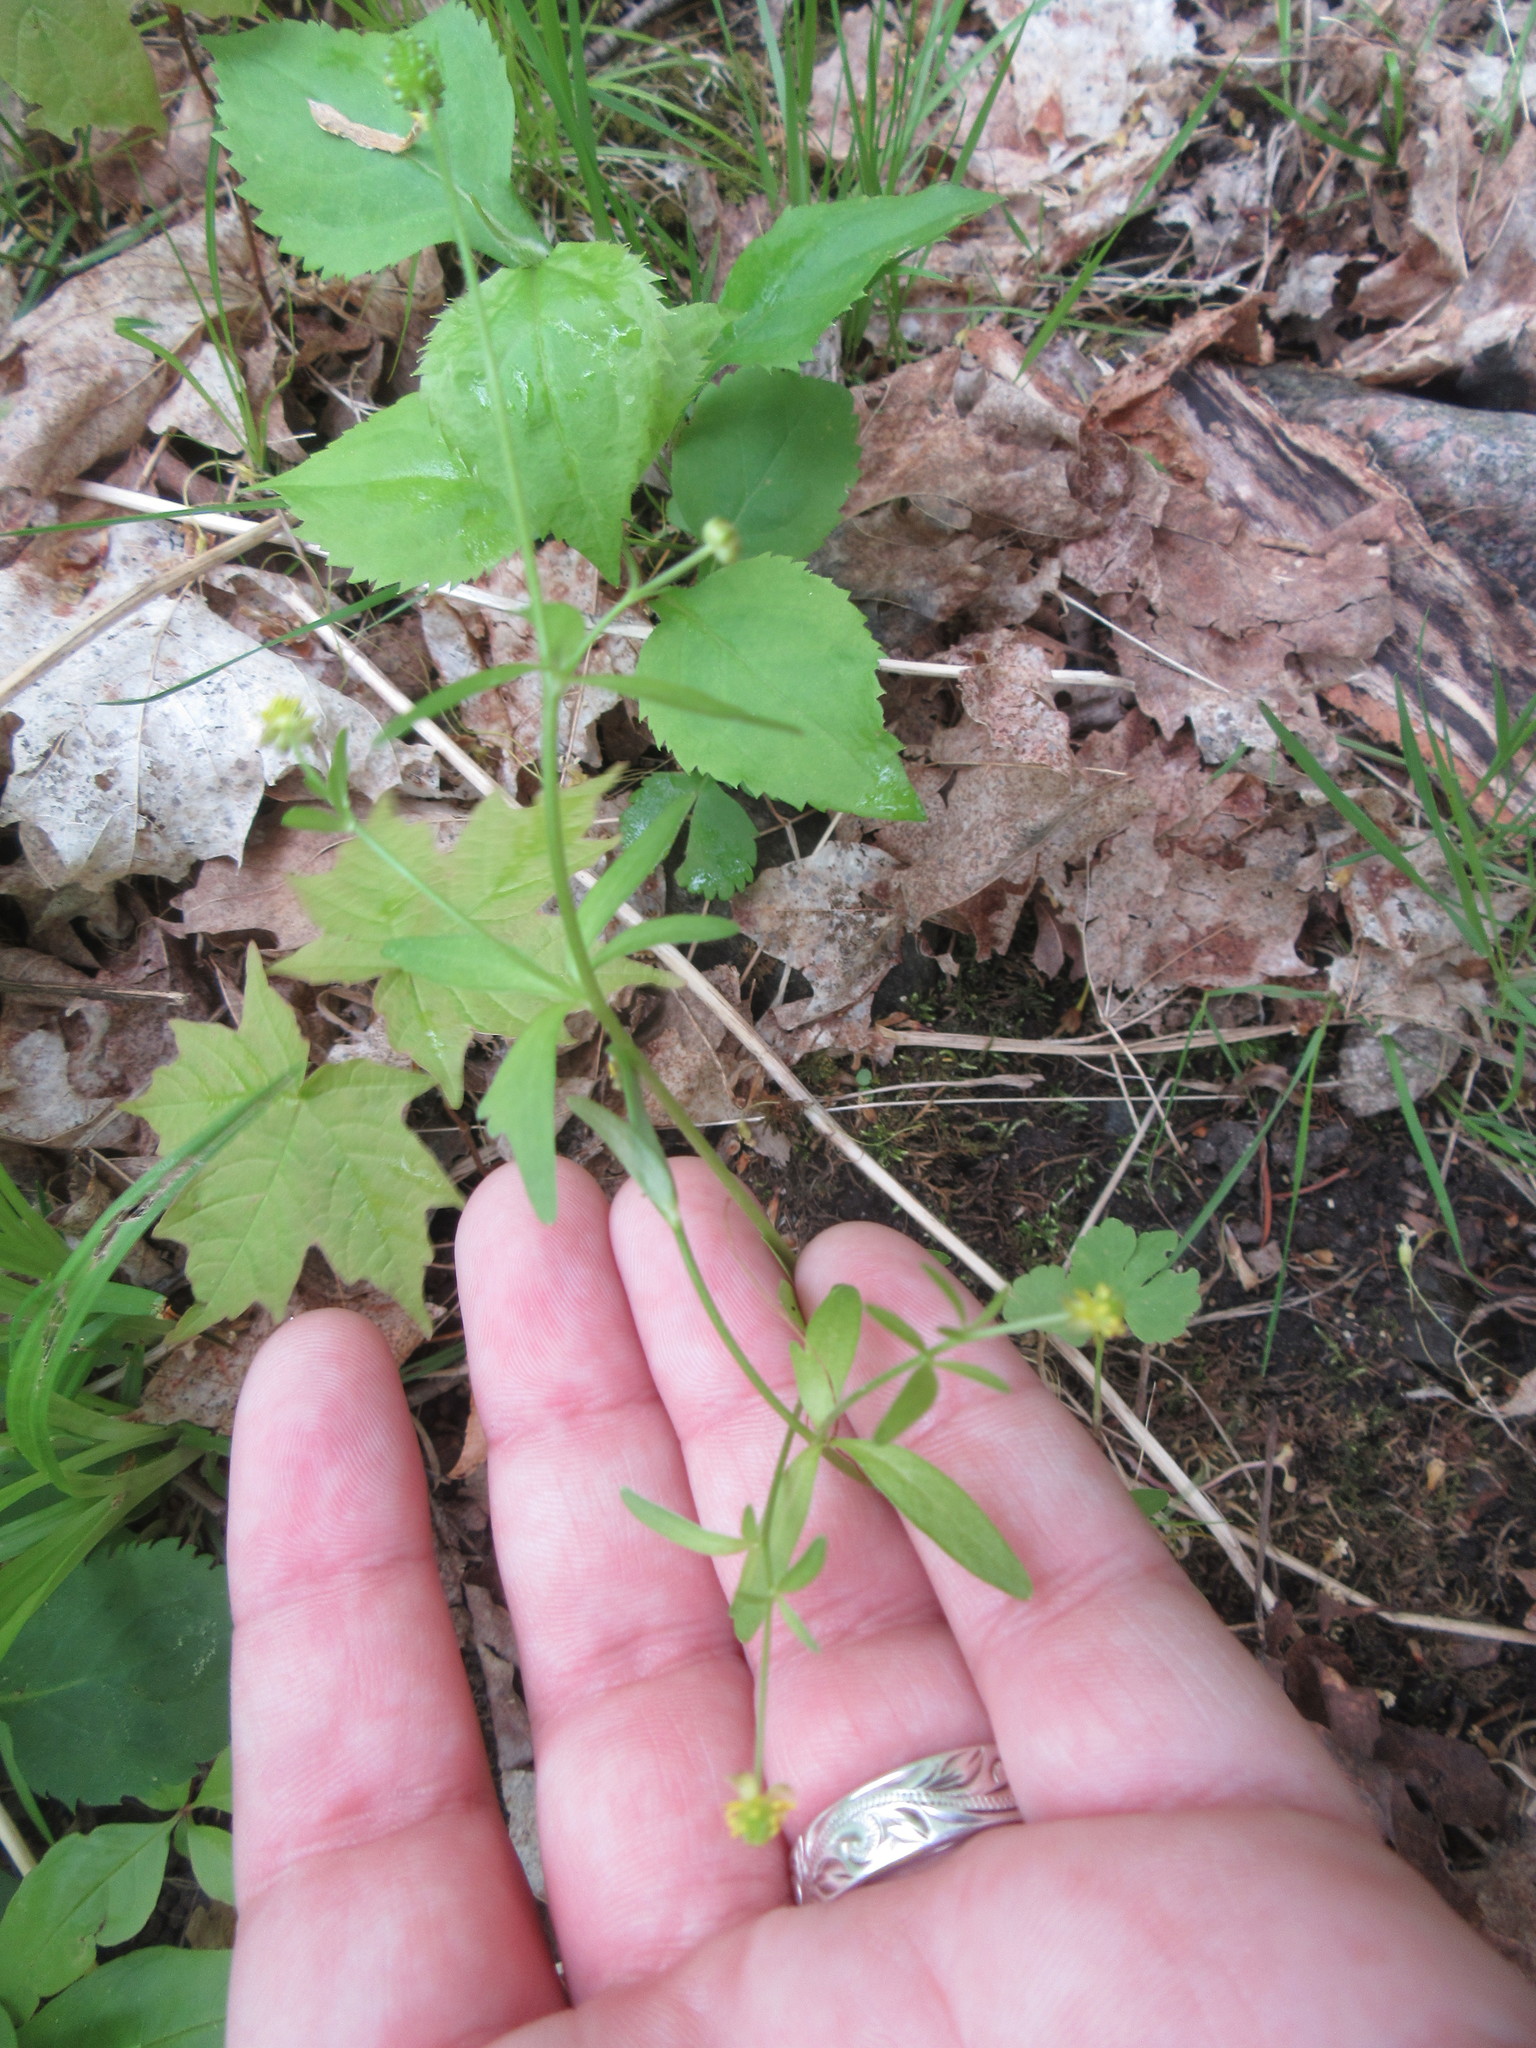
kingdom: Plantae
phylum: Tracheophyta
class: Magnoliopsida
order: Ranunculales
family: Ranunculaceae
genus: Ranunculus
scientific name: Ranunculus abortivus
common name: Early wood buttercup
